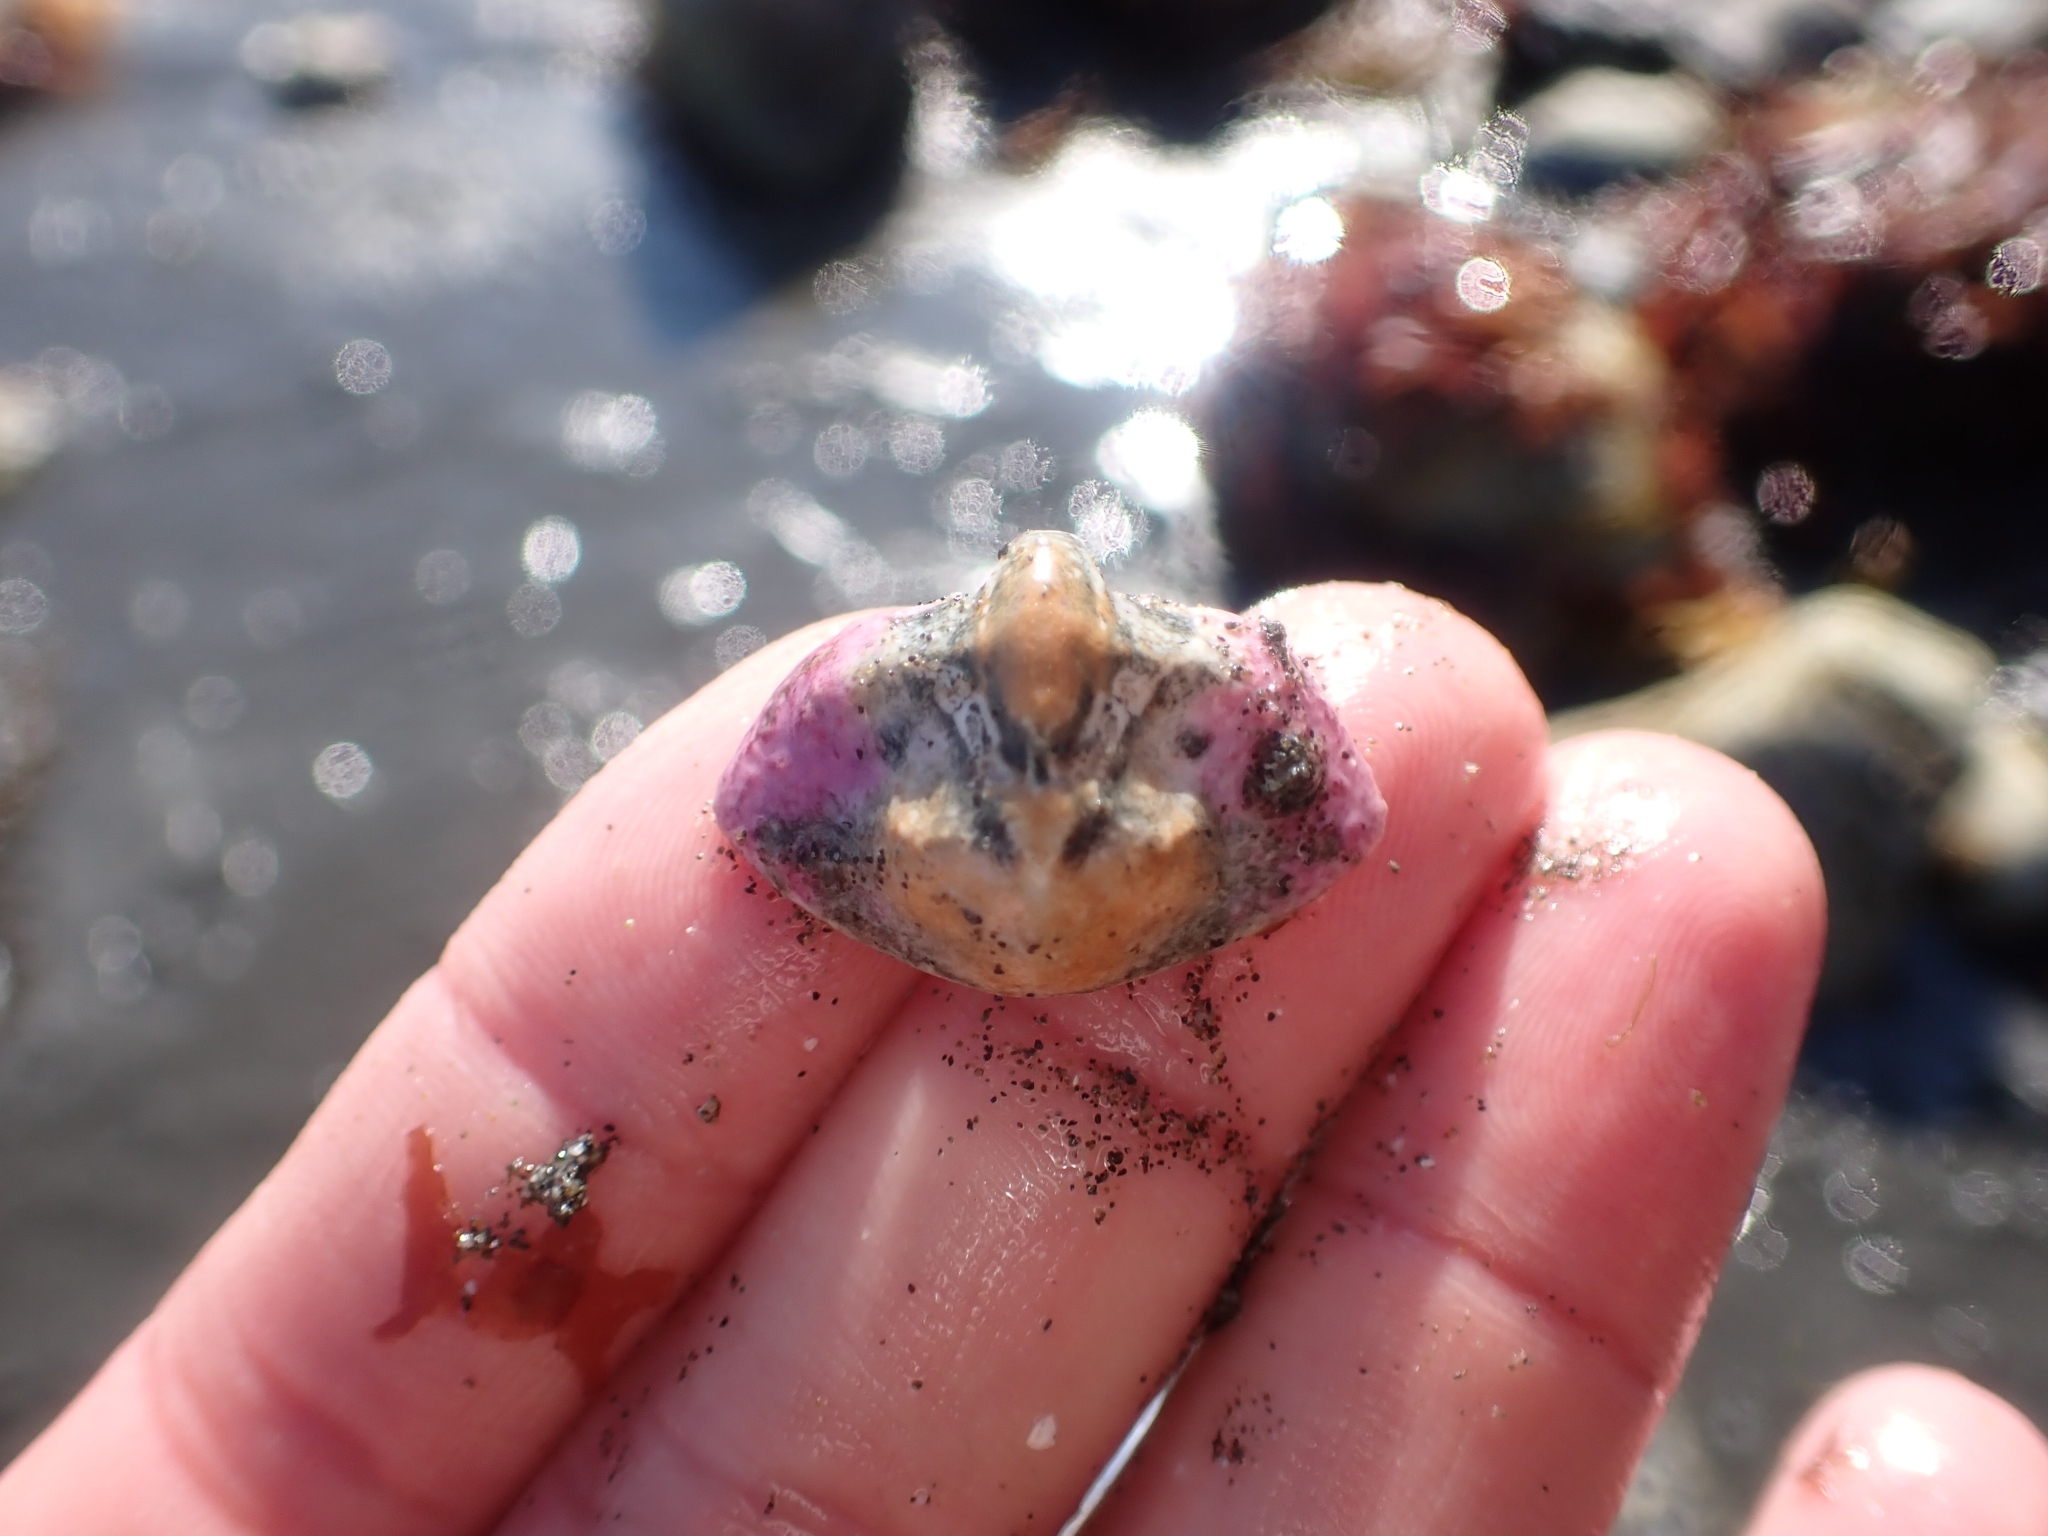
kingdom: Animalia
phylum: Arthropoda
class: Malacostraca
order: Decapoda
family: Lithodidae
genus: Cryptolithodes
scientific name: Cryptolithodes typicus
